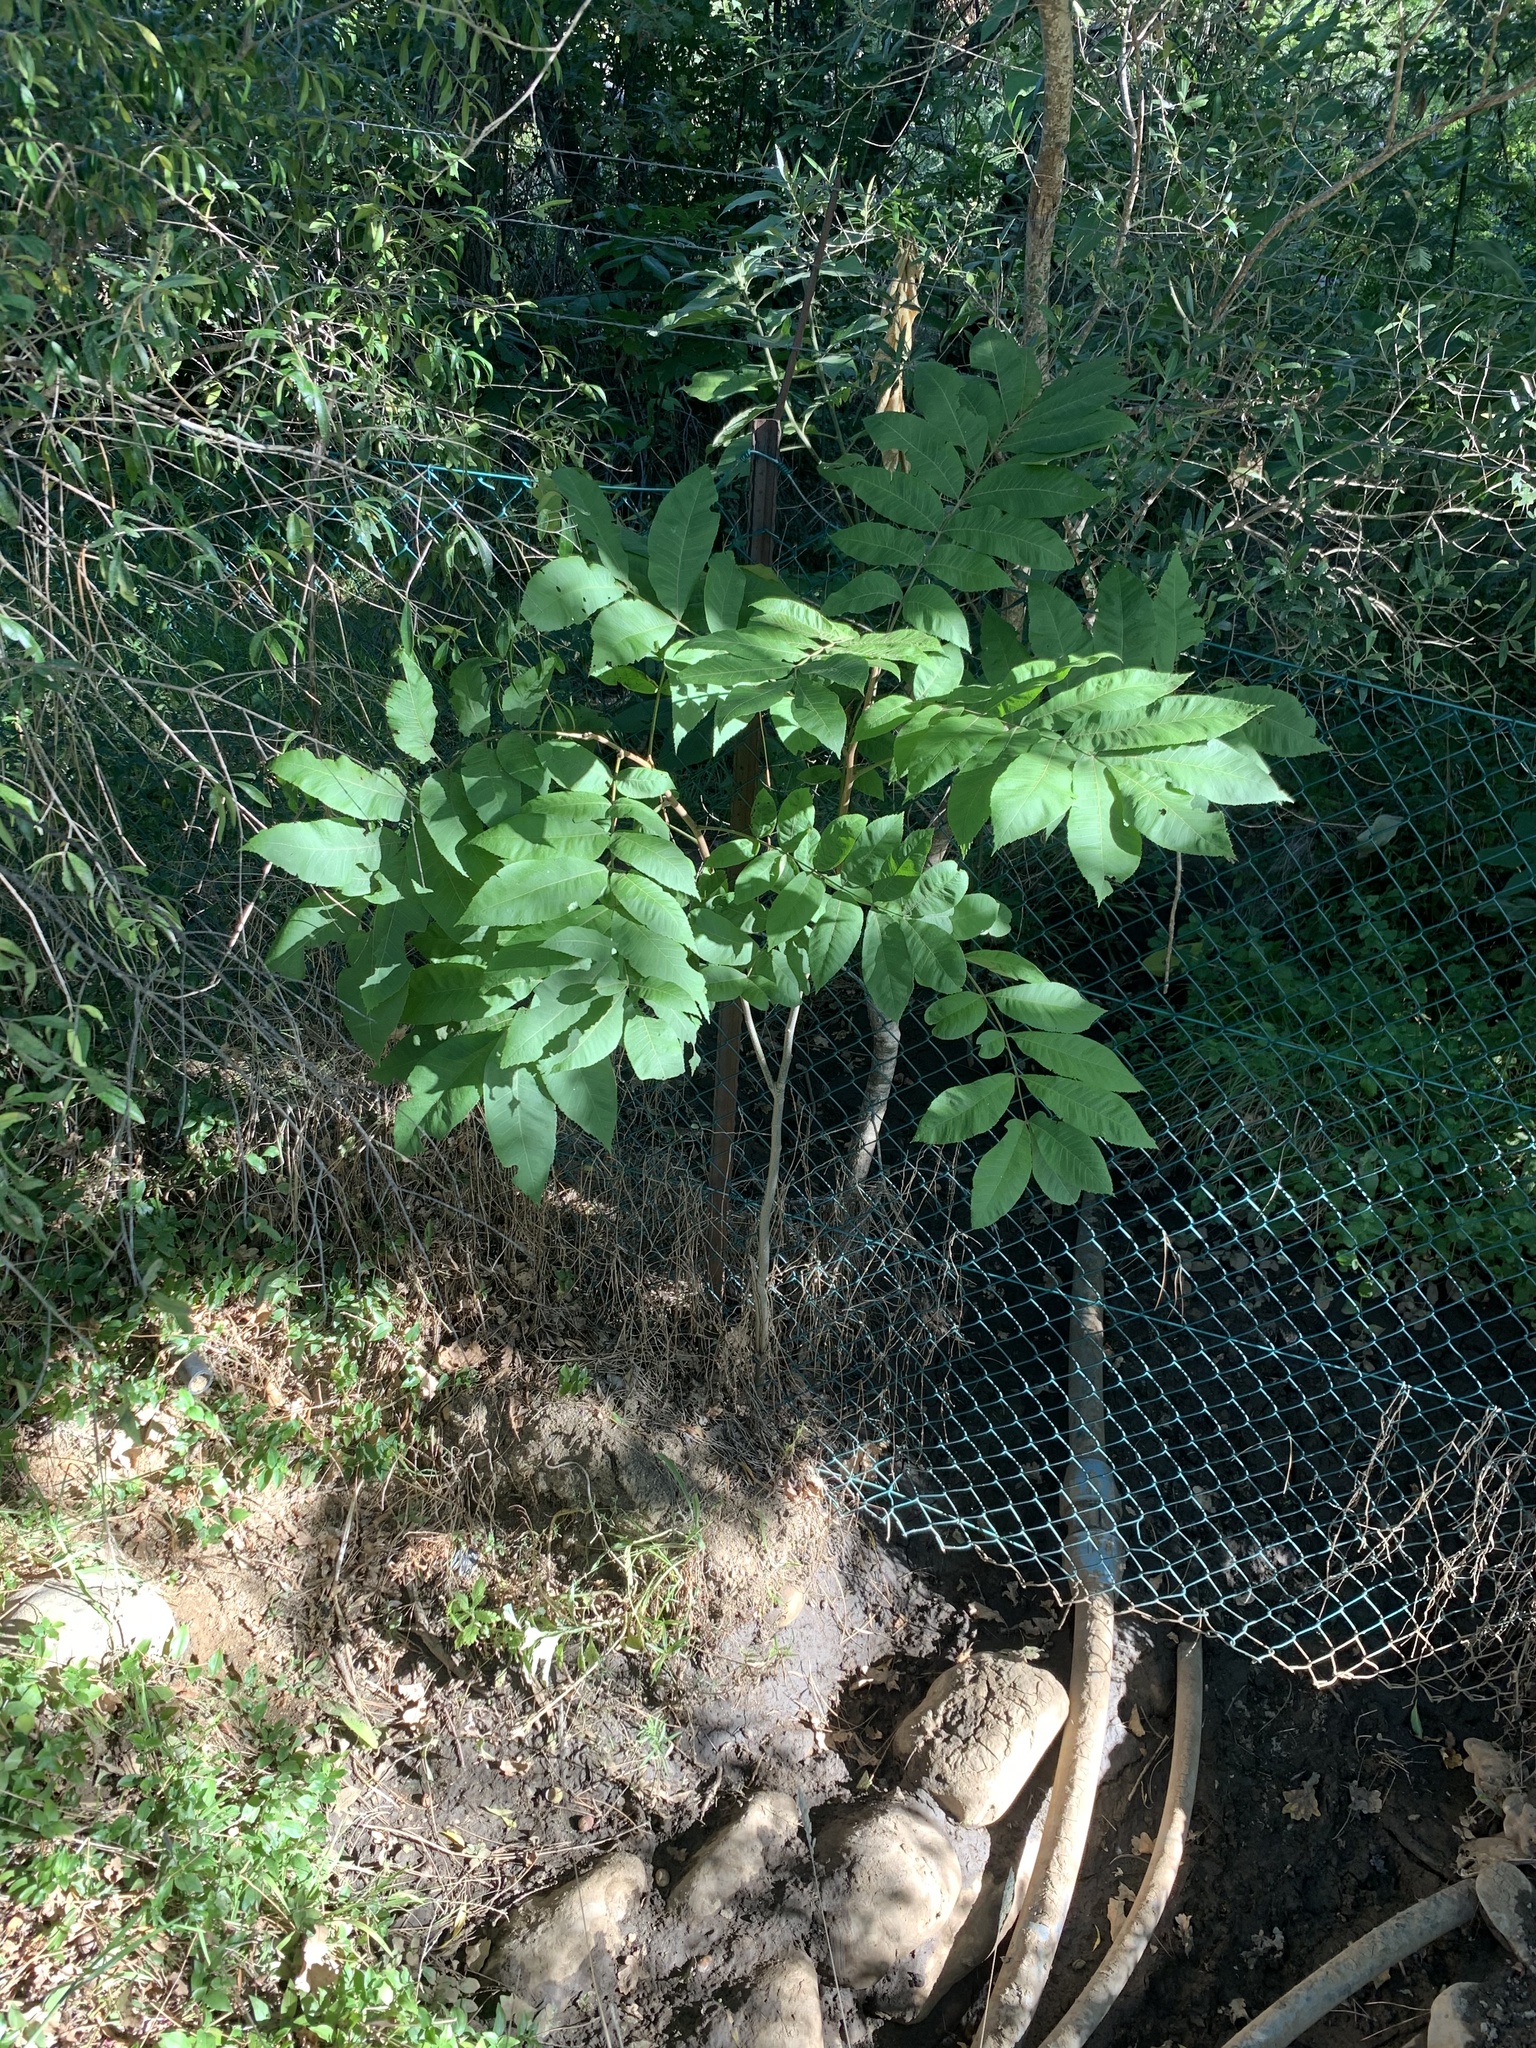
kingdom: Plantae
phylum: Tracheophyta
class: Magnoliopsida
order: Fagales
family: Juglandaceae
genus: Carya
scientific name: Carya illinoinensis
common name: Pecan
